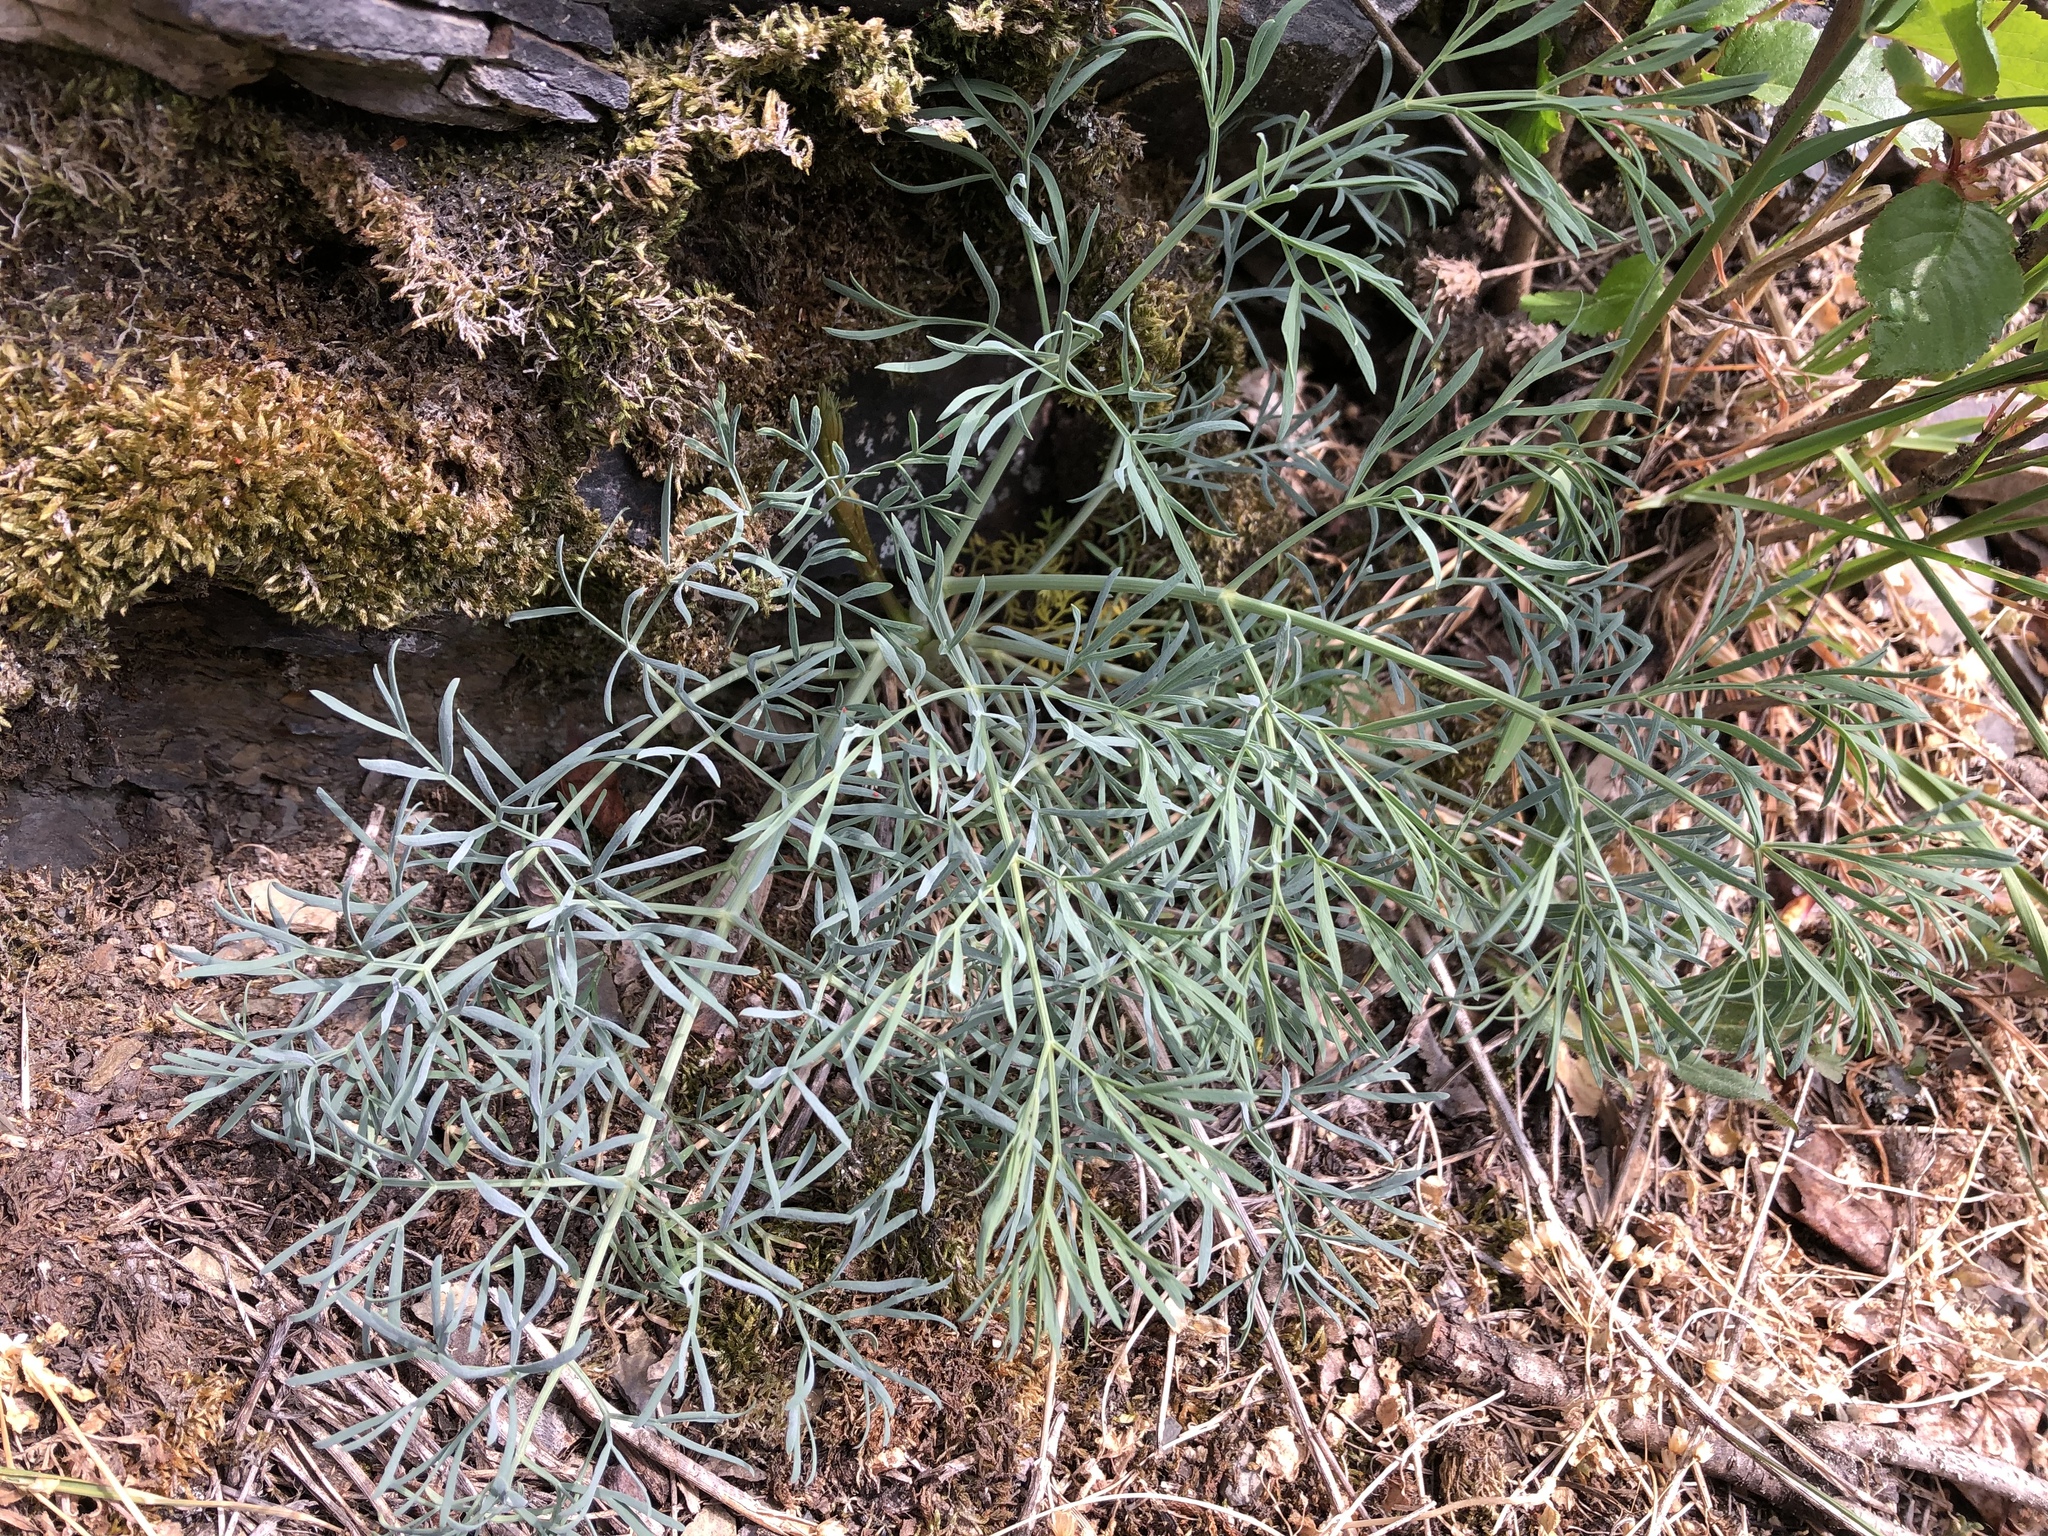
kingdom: Plantae
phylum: Tracheophyta
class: Magnoliopsida
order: Apiales
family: Apiaceae
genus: Seseli
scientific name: Seseli osseum
